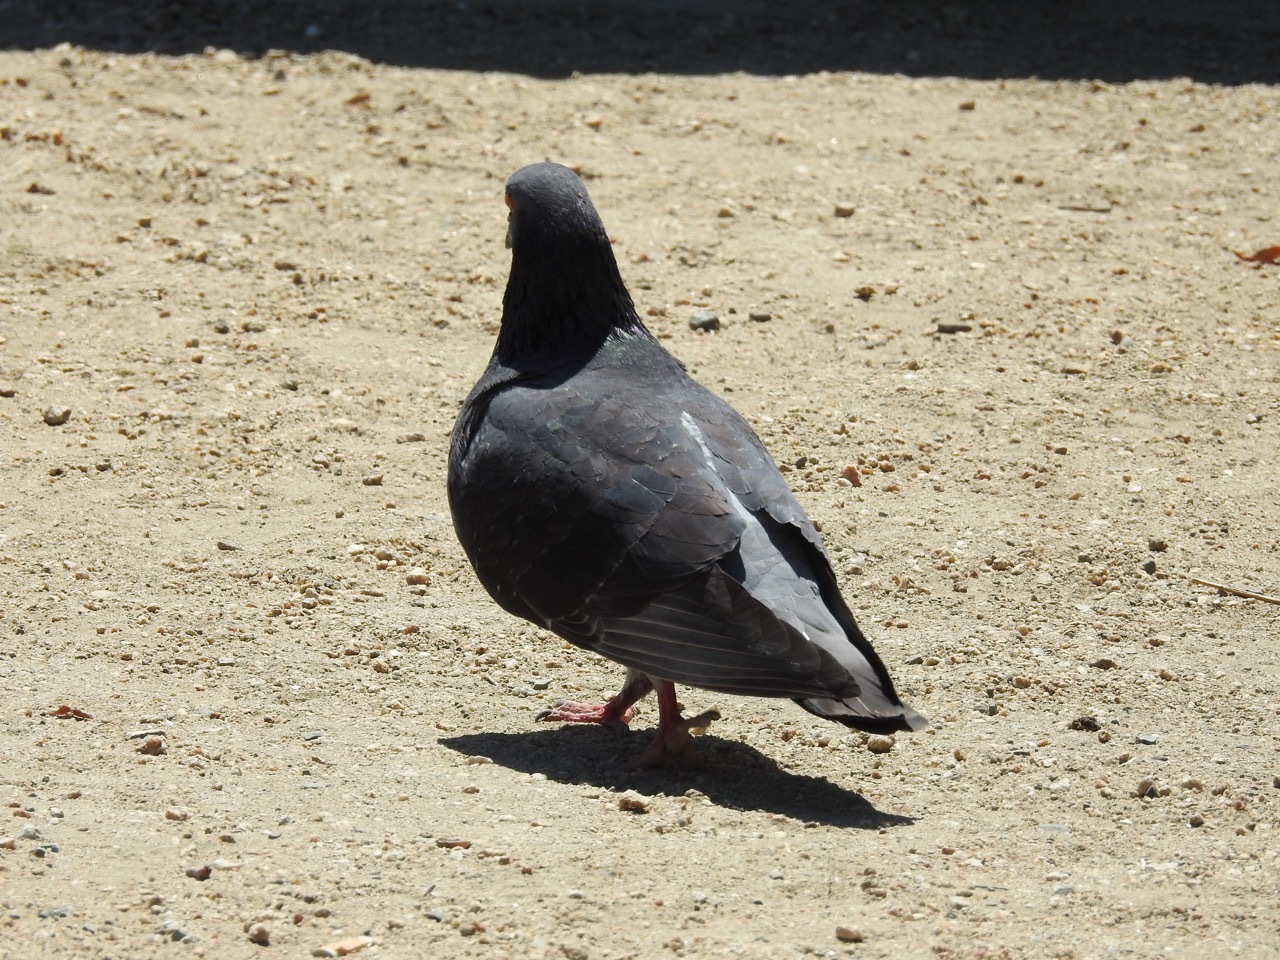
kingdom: Animalia
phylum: Chordata
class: Aves
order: Columbiformes
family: Columbidae
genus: Columba
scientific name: Columba livia
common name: Rock pigeon
